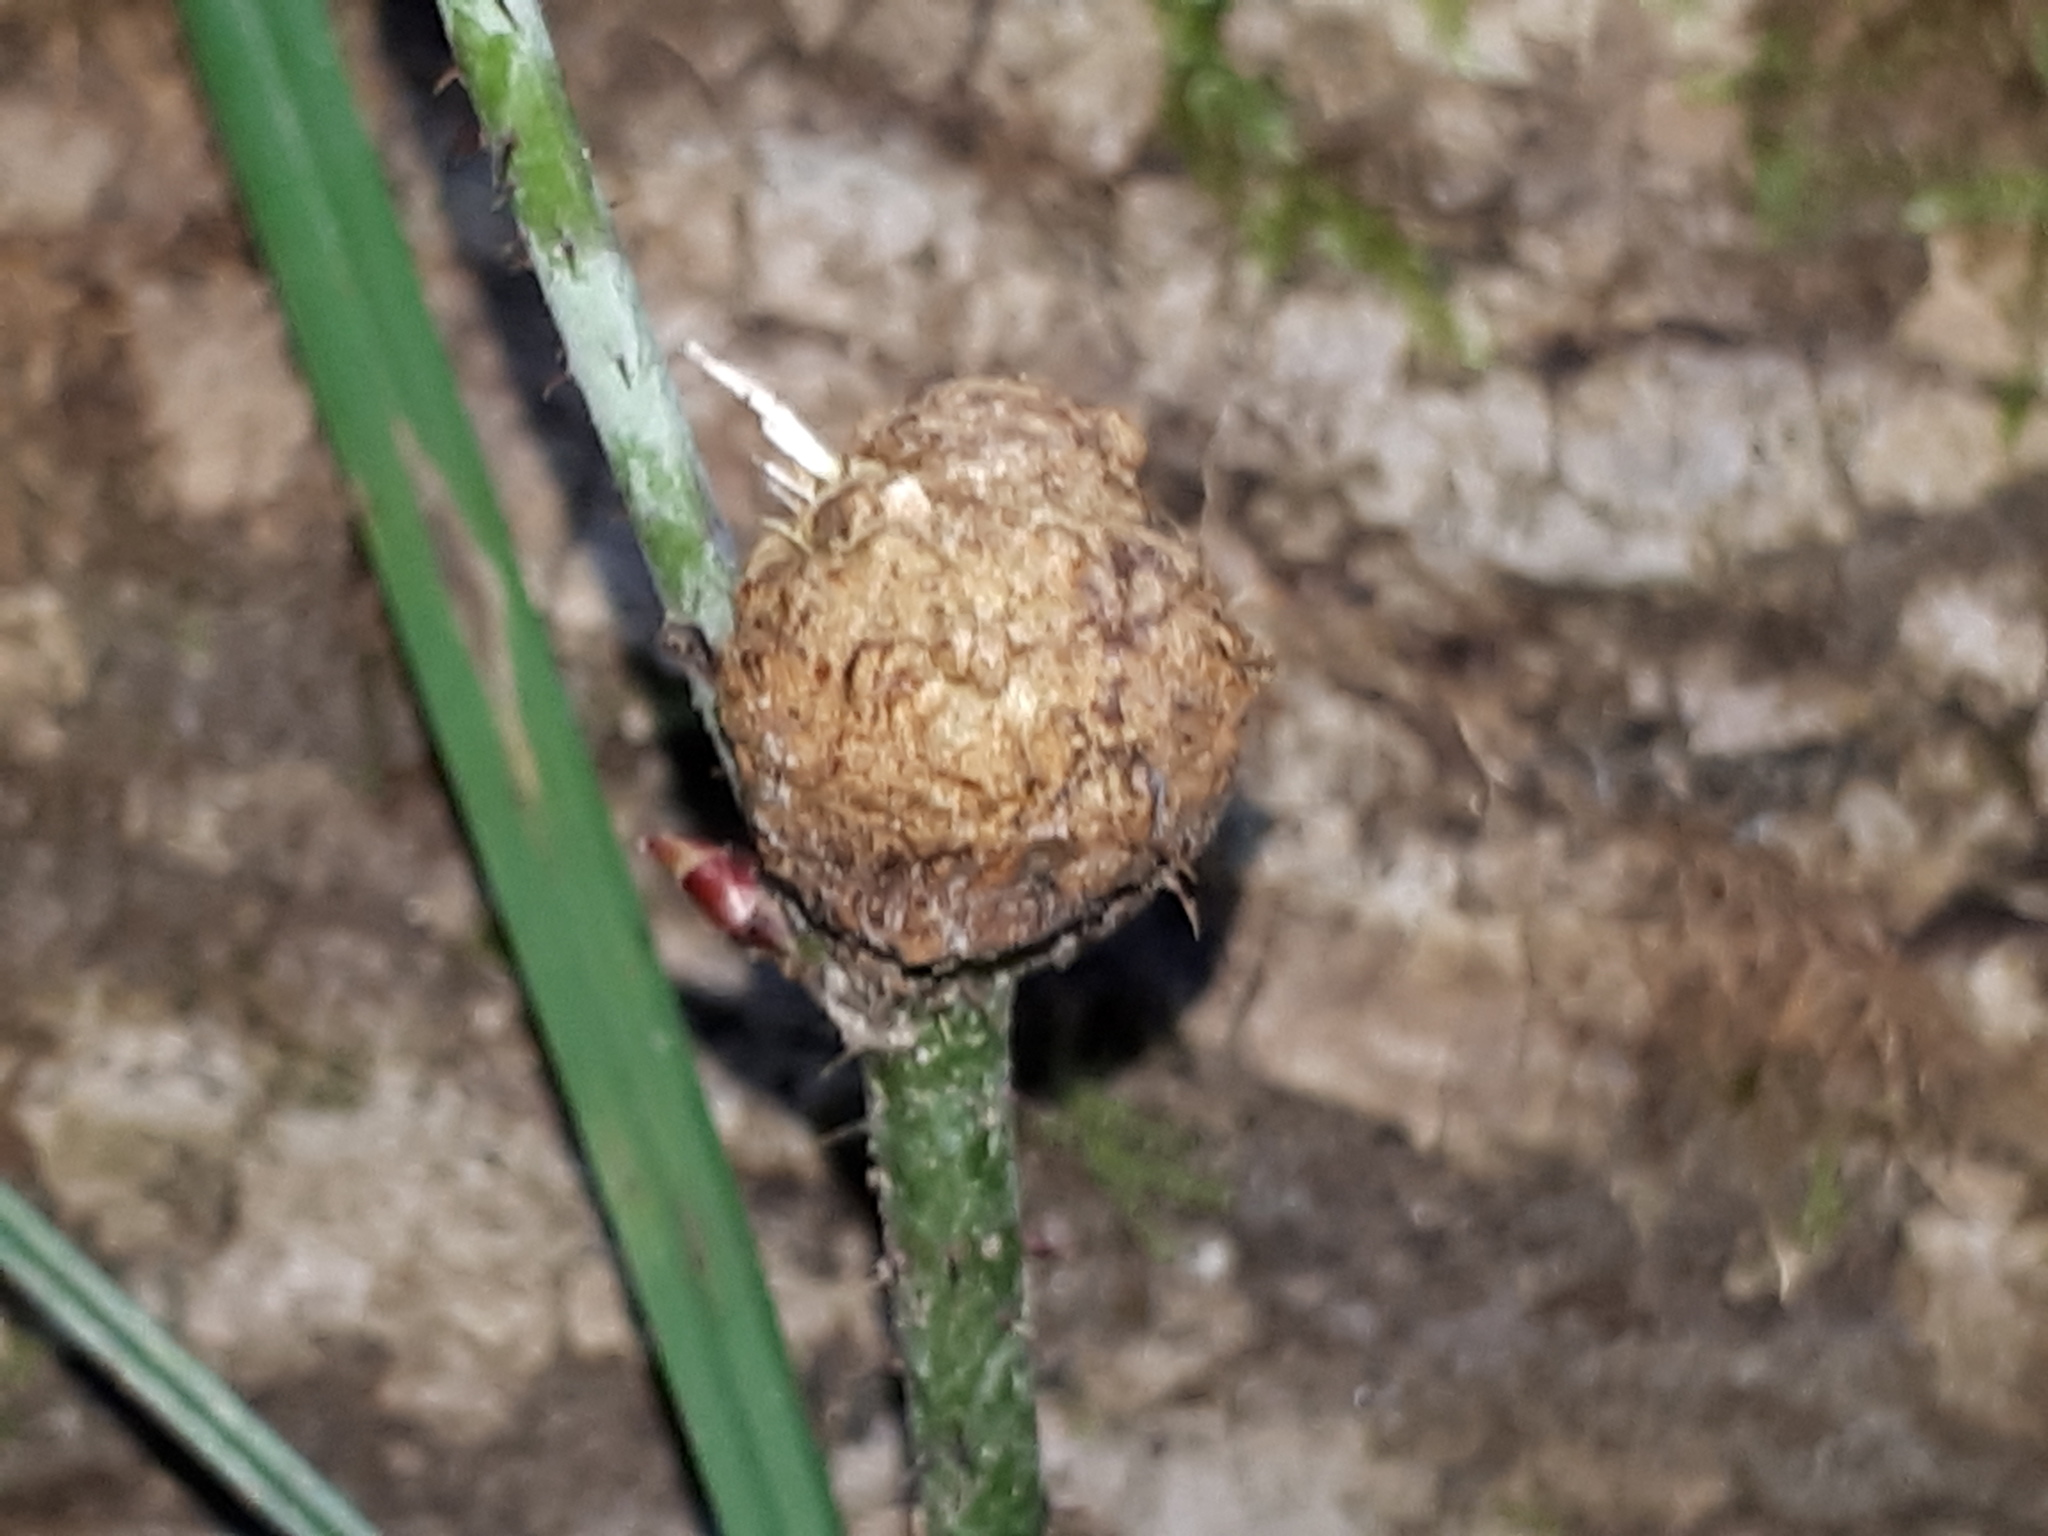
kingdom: Animalia
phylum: Arthropoda
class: Insecta
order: Diptera
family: Cecidomyiidae
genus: Lasioptera
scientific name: Lasioptera rubi
